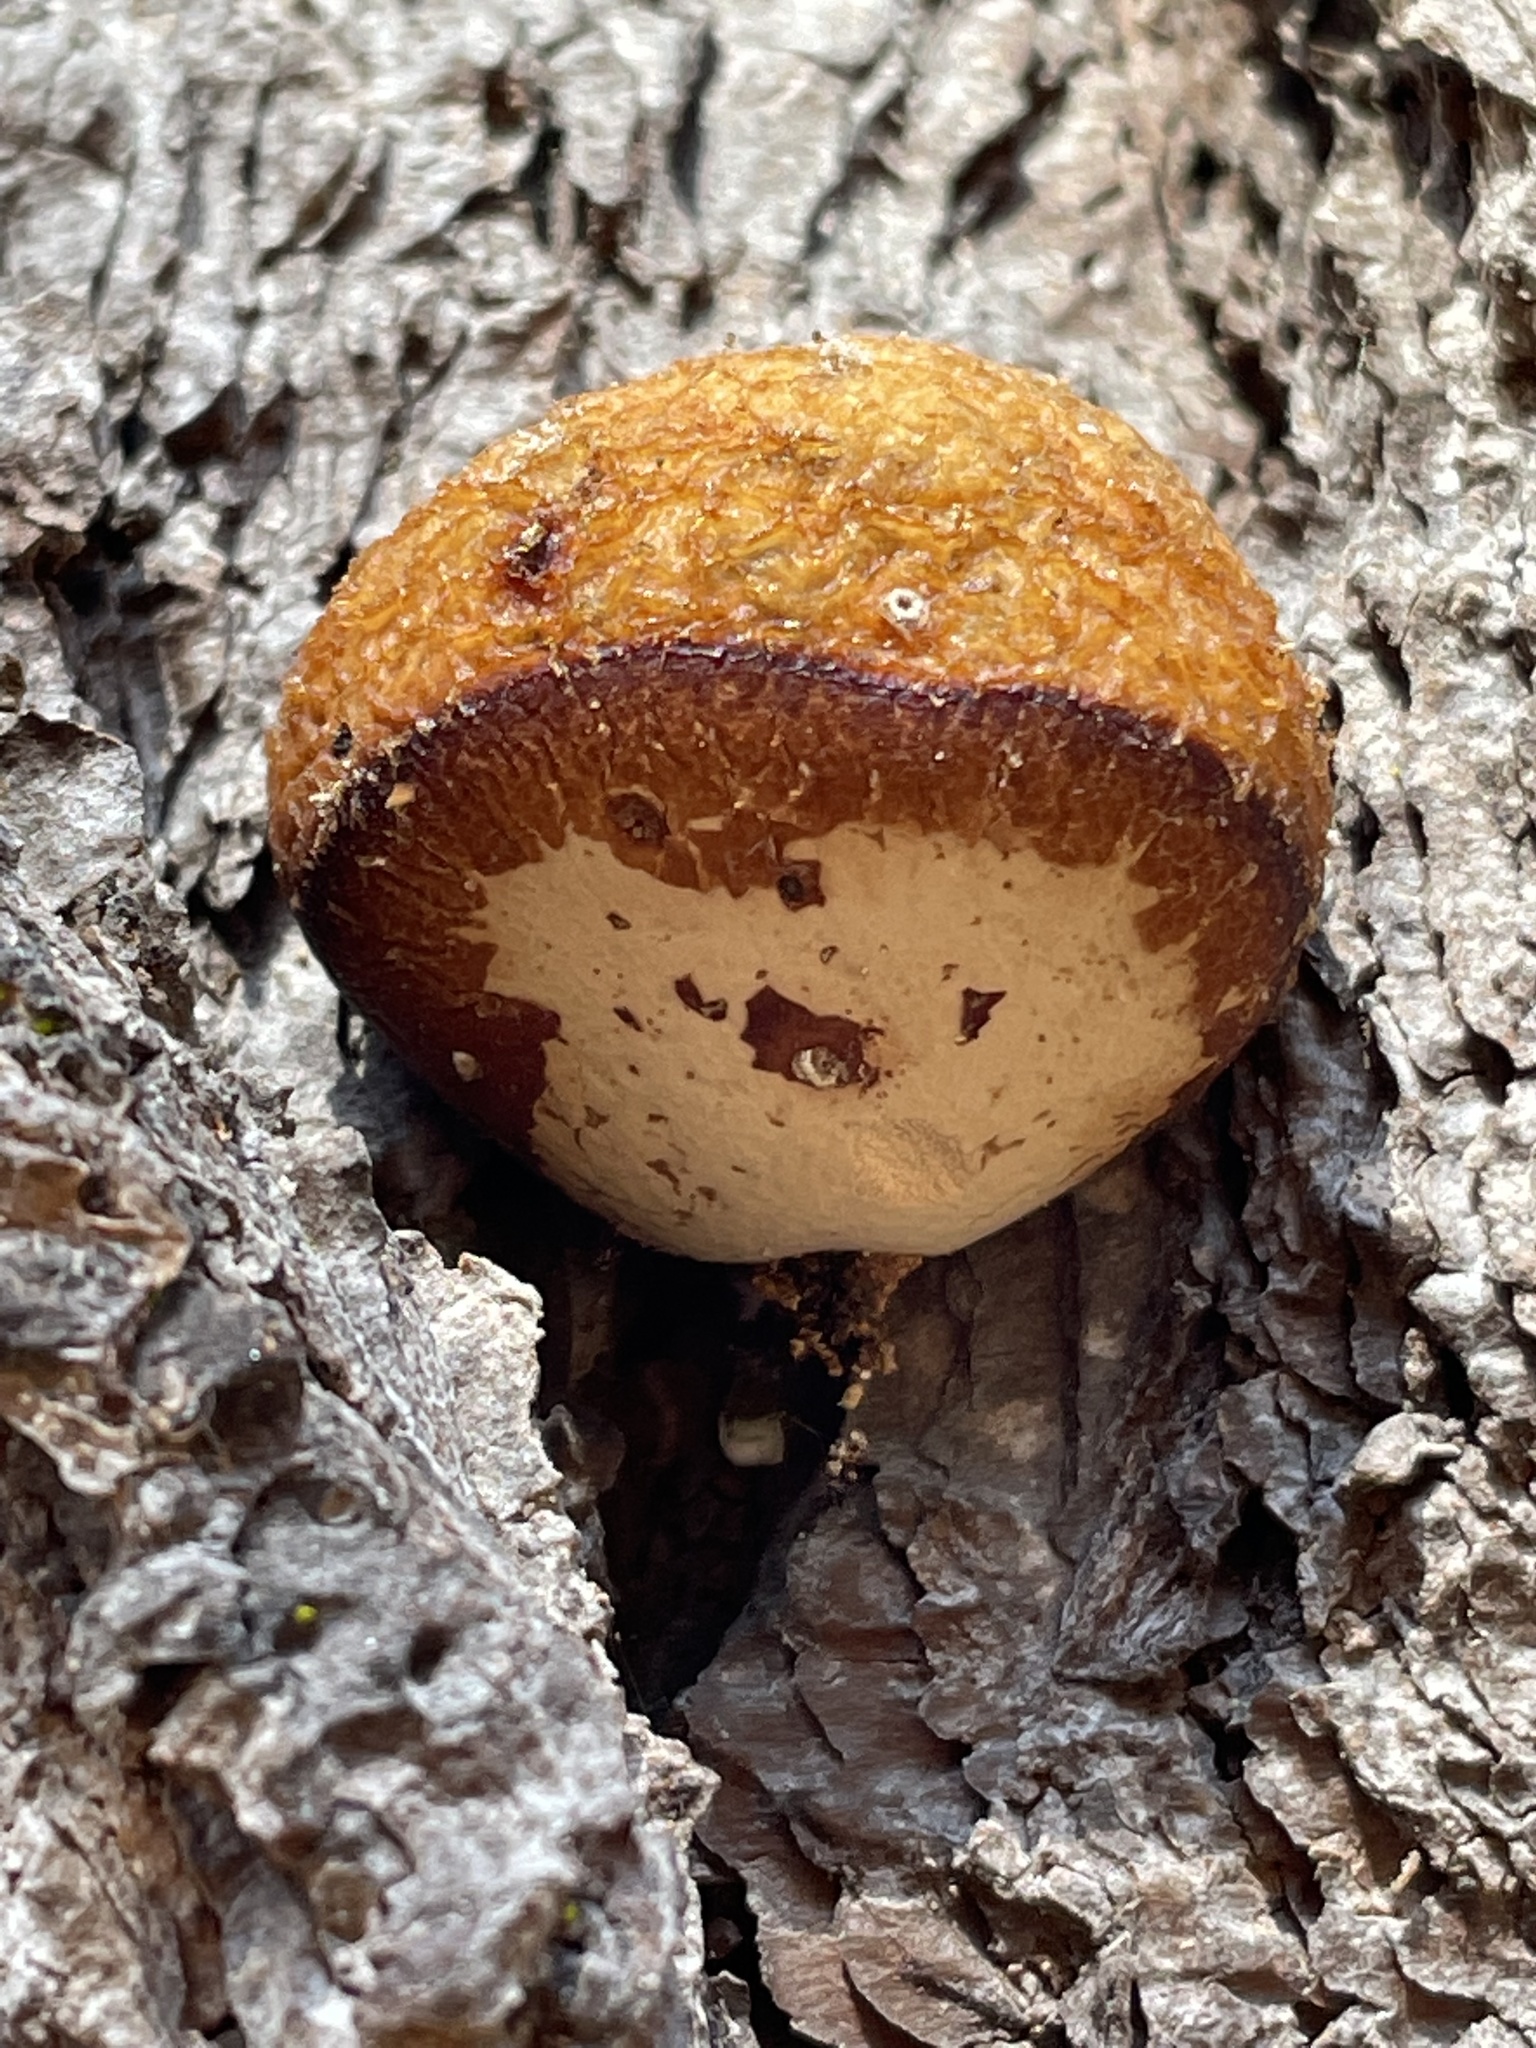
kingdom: Fungi
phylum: Basidiomycota
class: Agaricomycetes
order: Polyporales
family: Polyporaceae
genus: Cryptoporus
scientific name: Cryptoporus volvatus
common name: Veiled polypore
